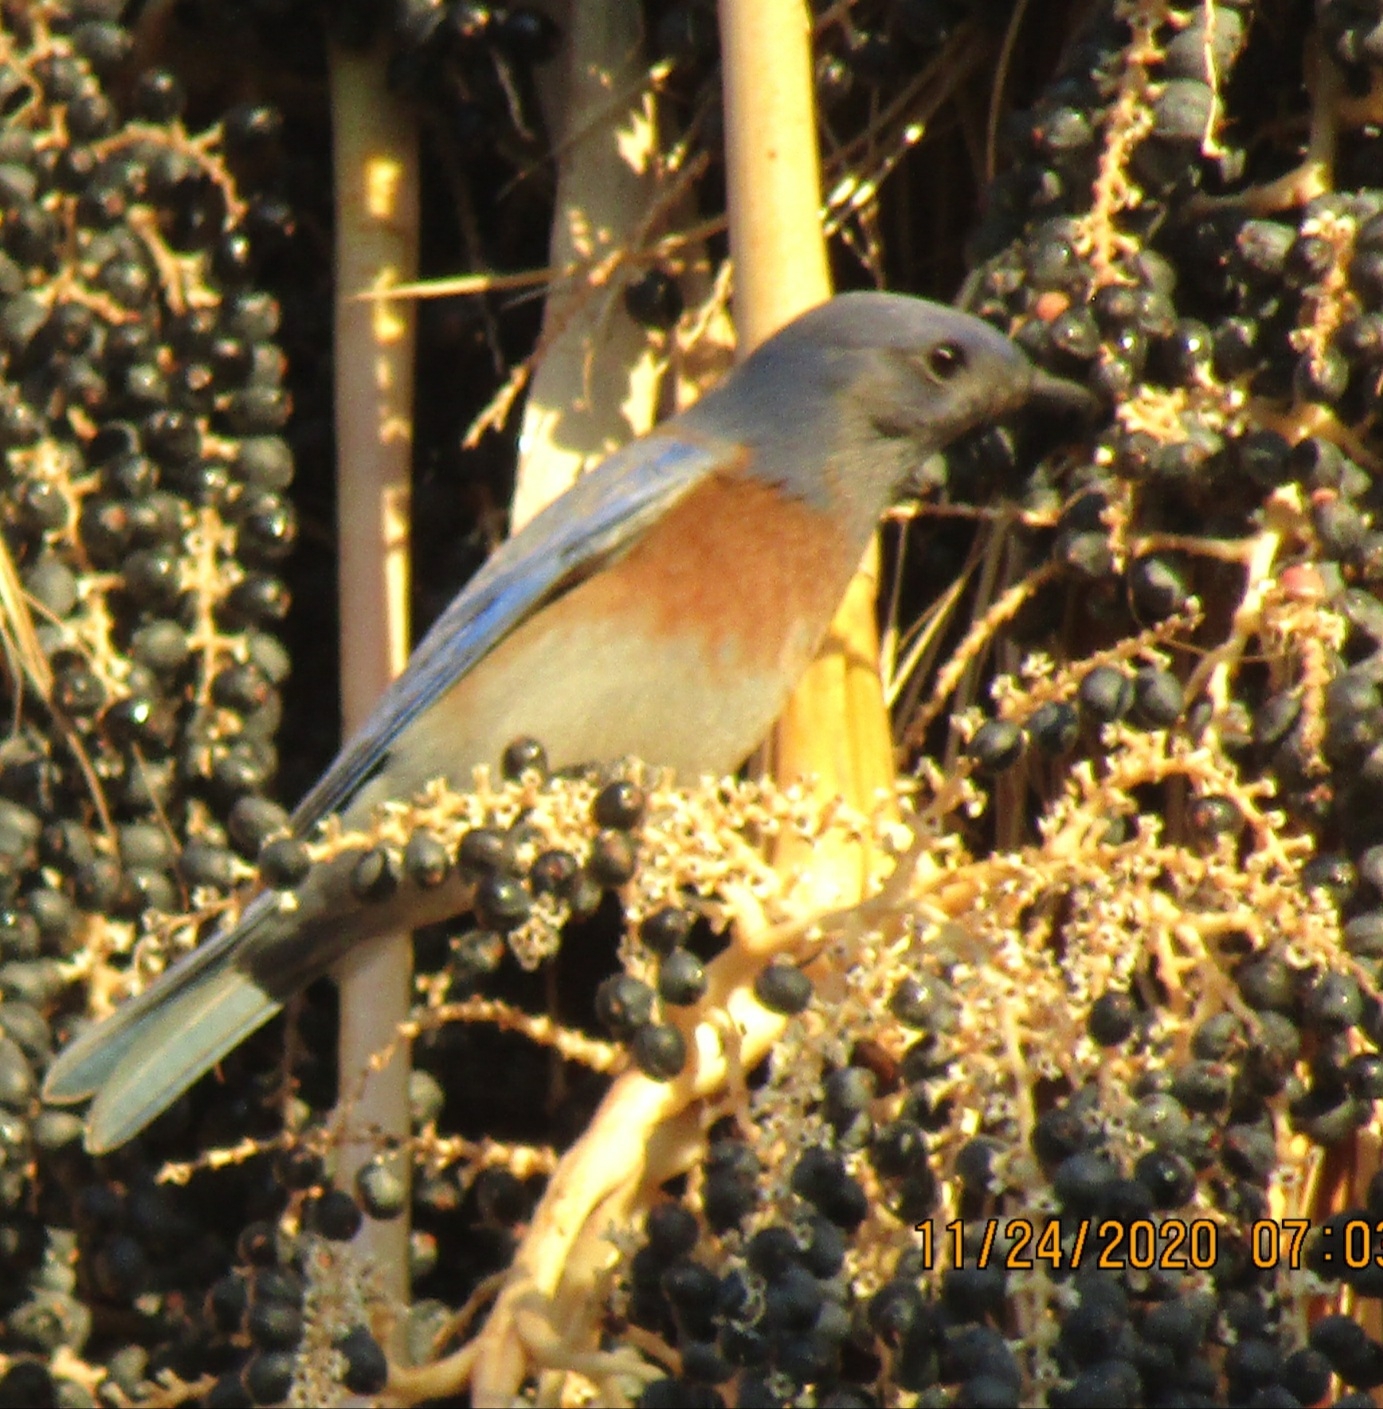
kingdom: Animalia
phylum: Chordata
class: Aves
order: Passeriformes
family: Turdidae
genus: Sialia
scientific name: Sialia mexicana
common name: Western bluebird
